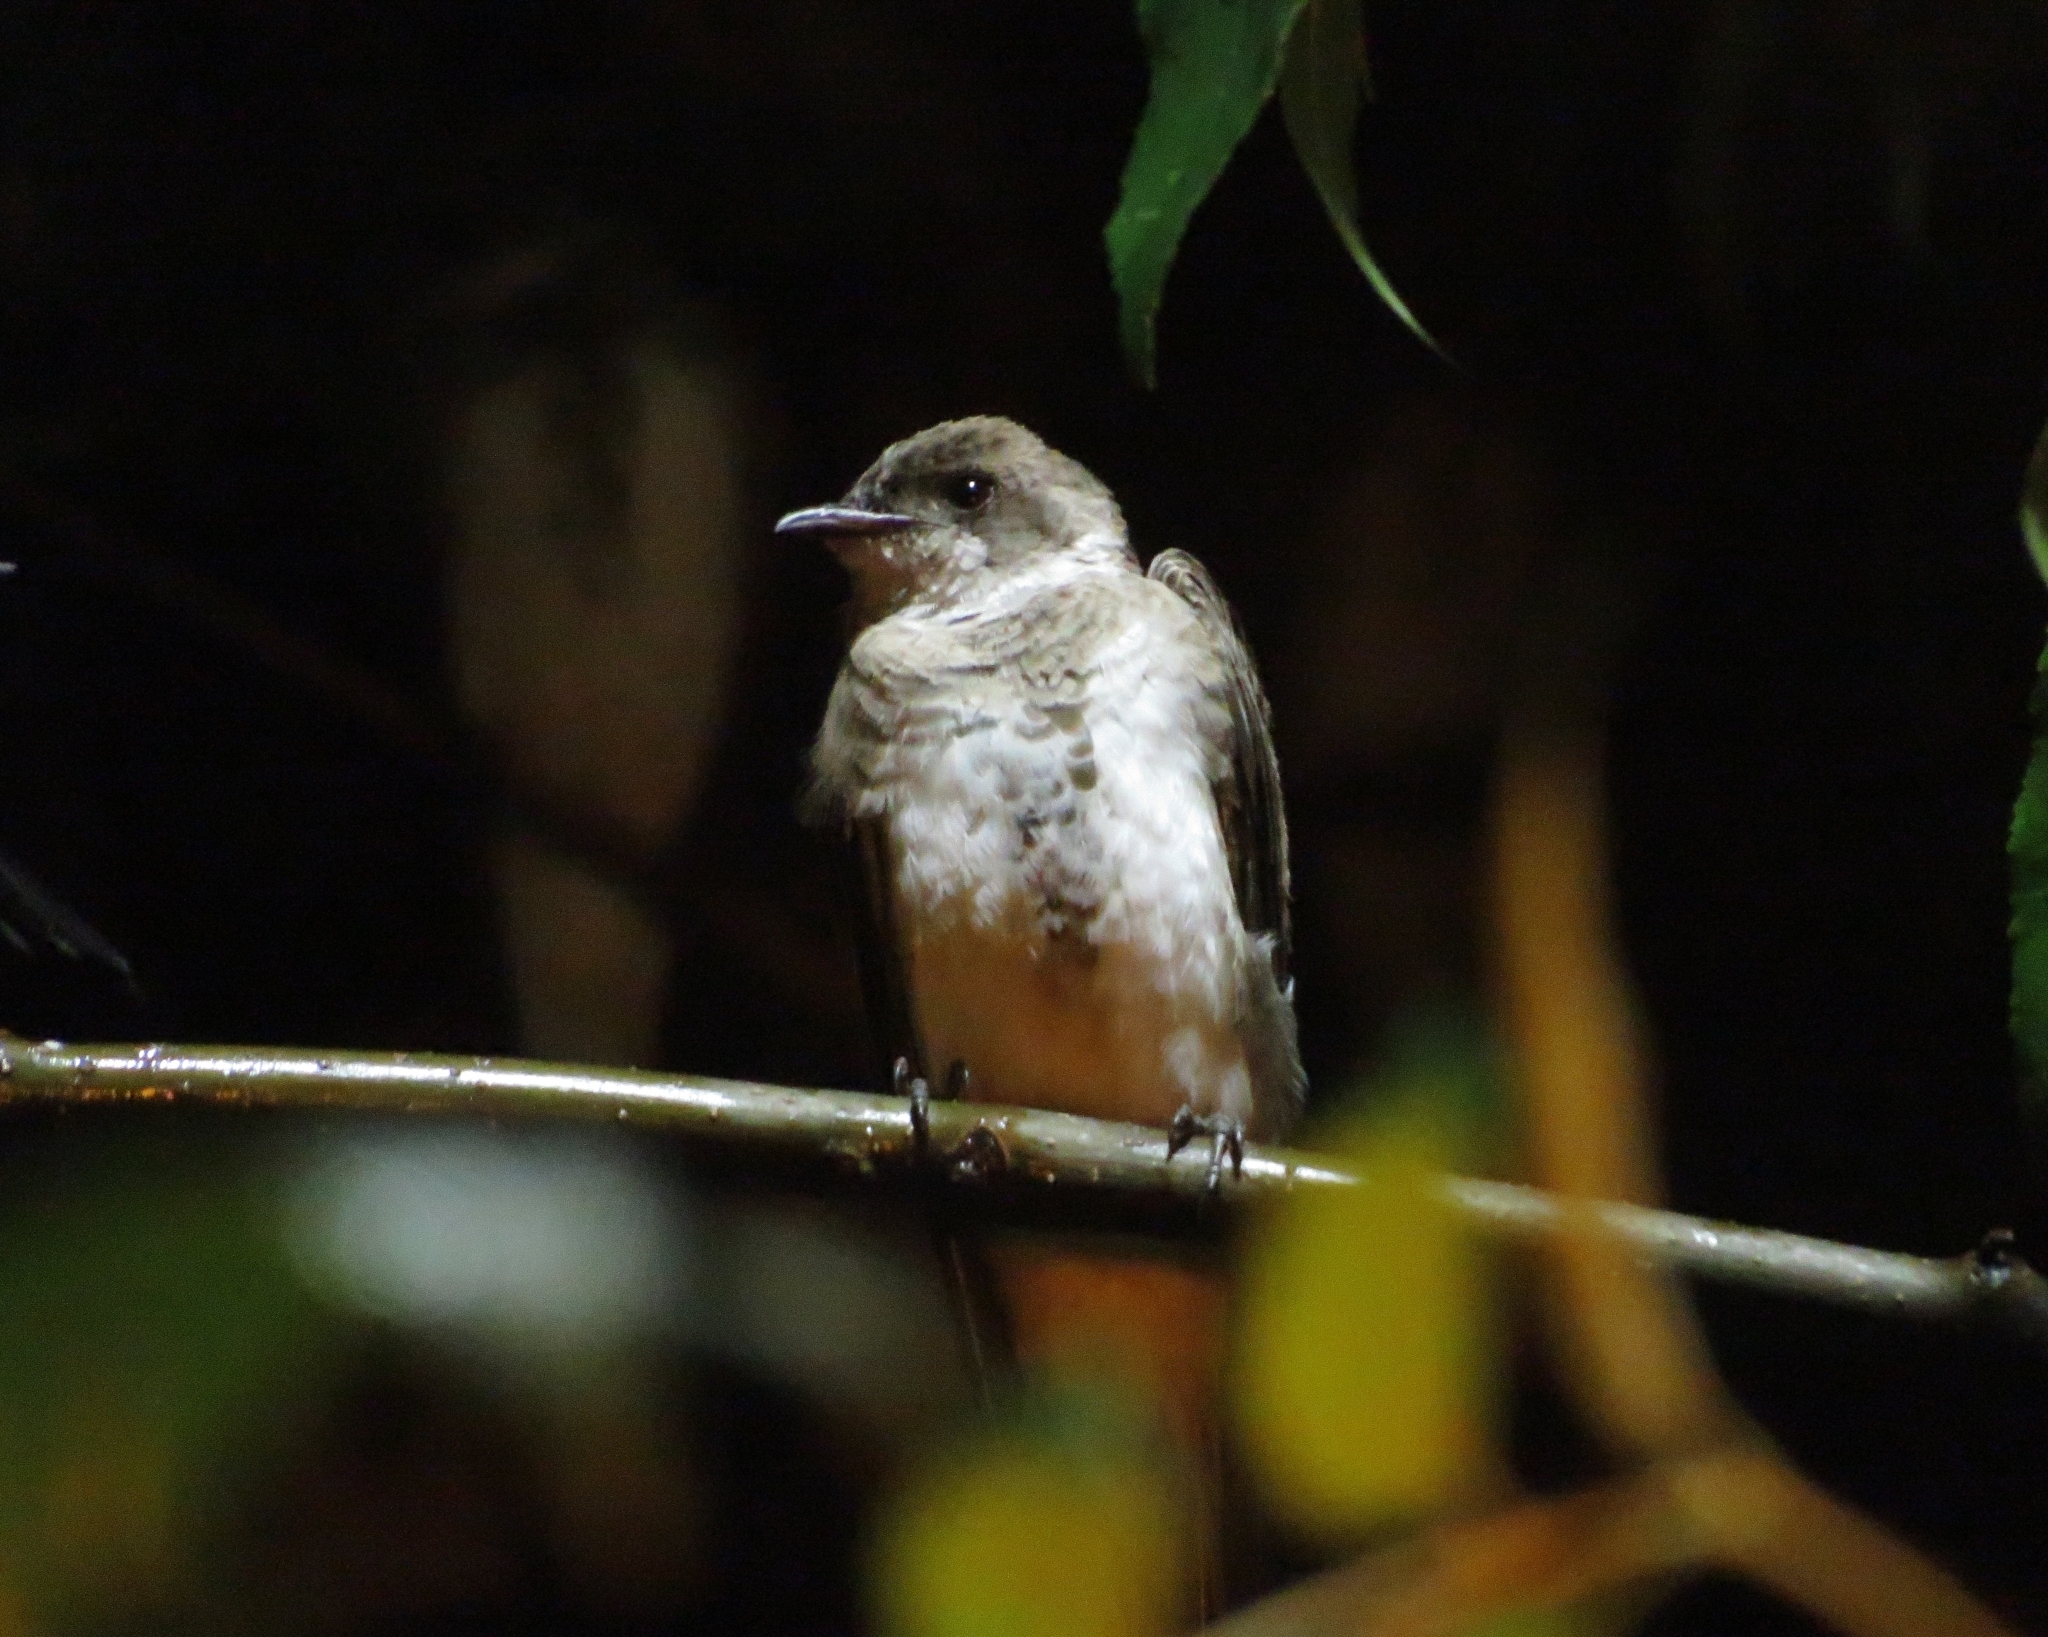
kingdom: Animalia
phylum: Chordata
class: Aves
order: Passeriformes
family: Hirundinidae
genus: Progne
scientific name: Progne tapera
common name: Brown-chested martin
